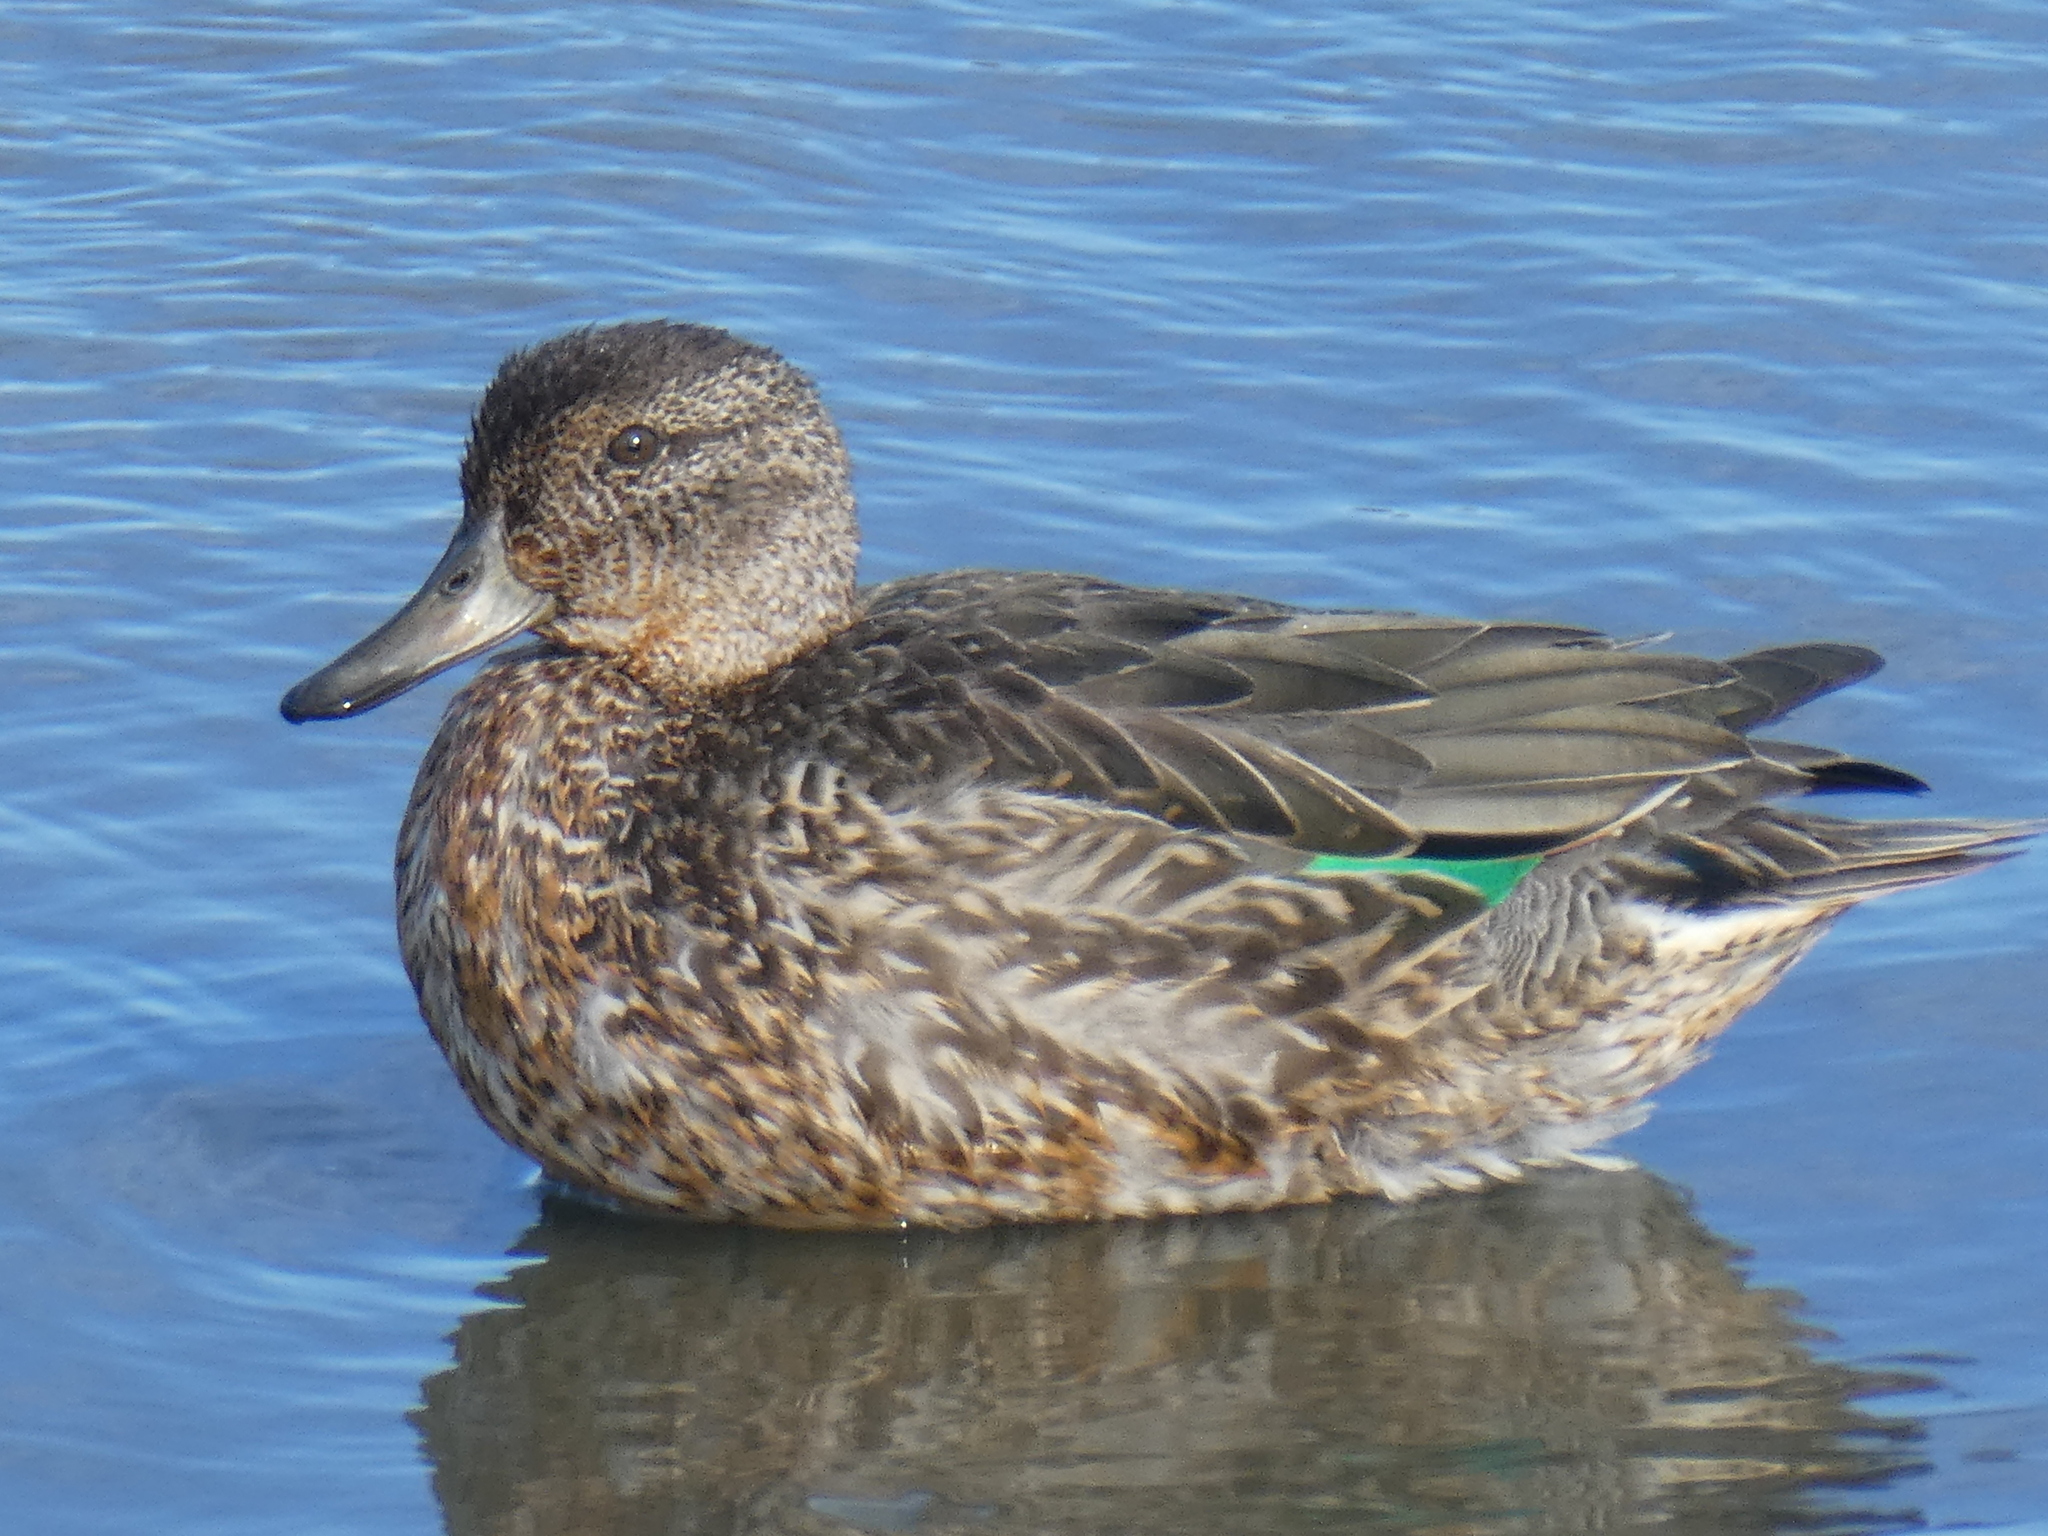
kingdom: Animalia
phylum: Chordata
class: Aves
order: Anseriformes
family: Anatidae
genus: Anas
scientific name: Anas crecca
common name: Eurasian teal
